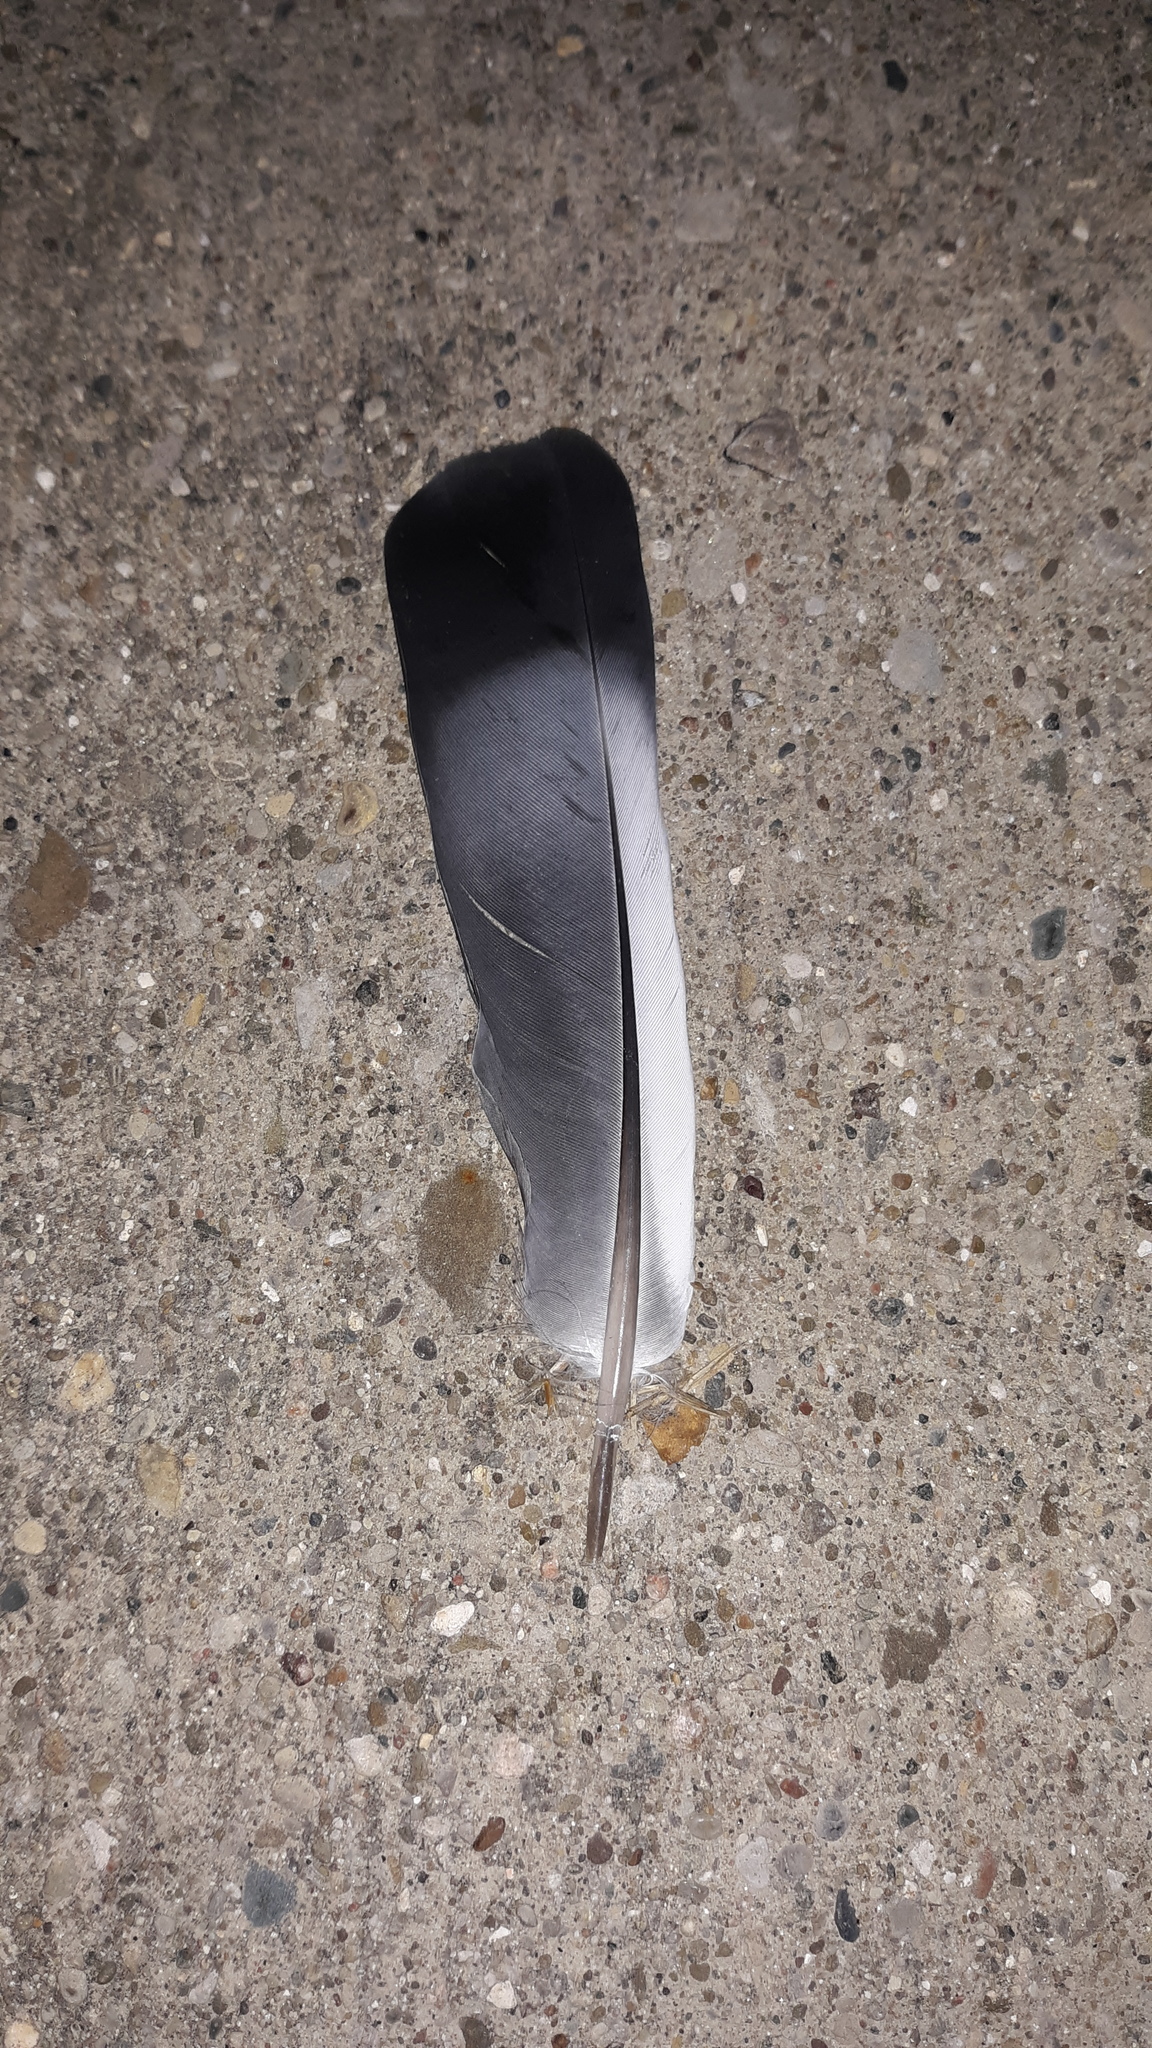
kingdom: Animalia
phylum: Chordata
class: Aves
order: Columbiformes
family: Columbidae
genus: Columba
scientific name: Columba livia
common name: Rock pigeon
